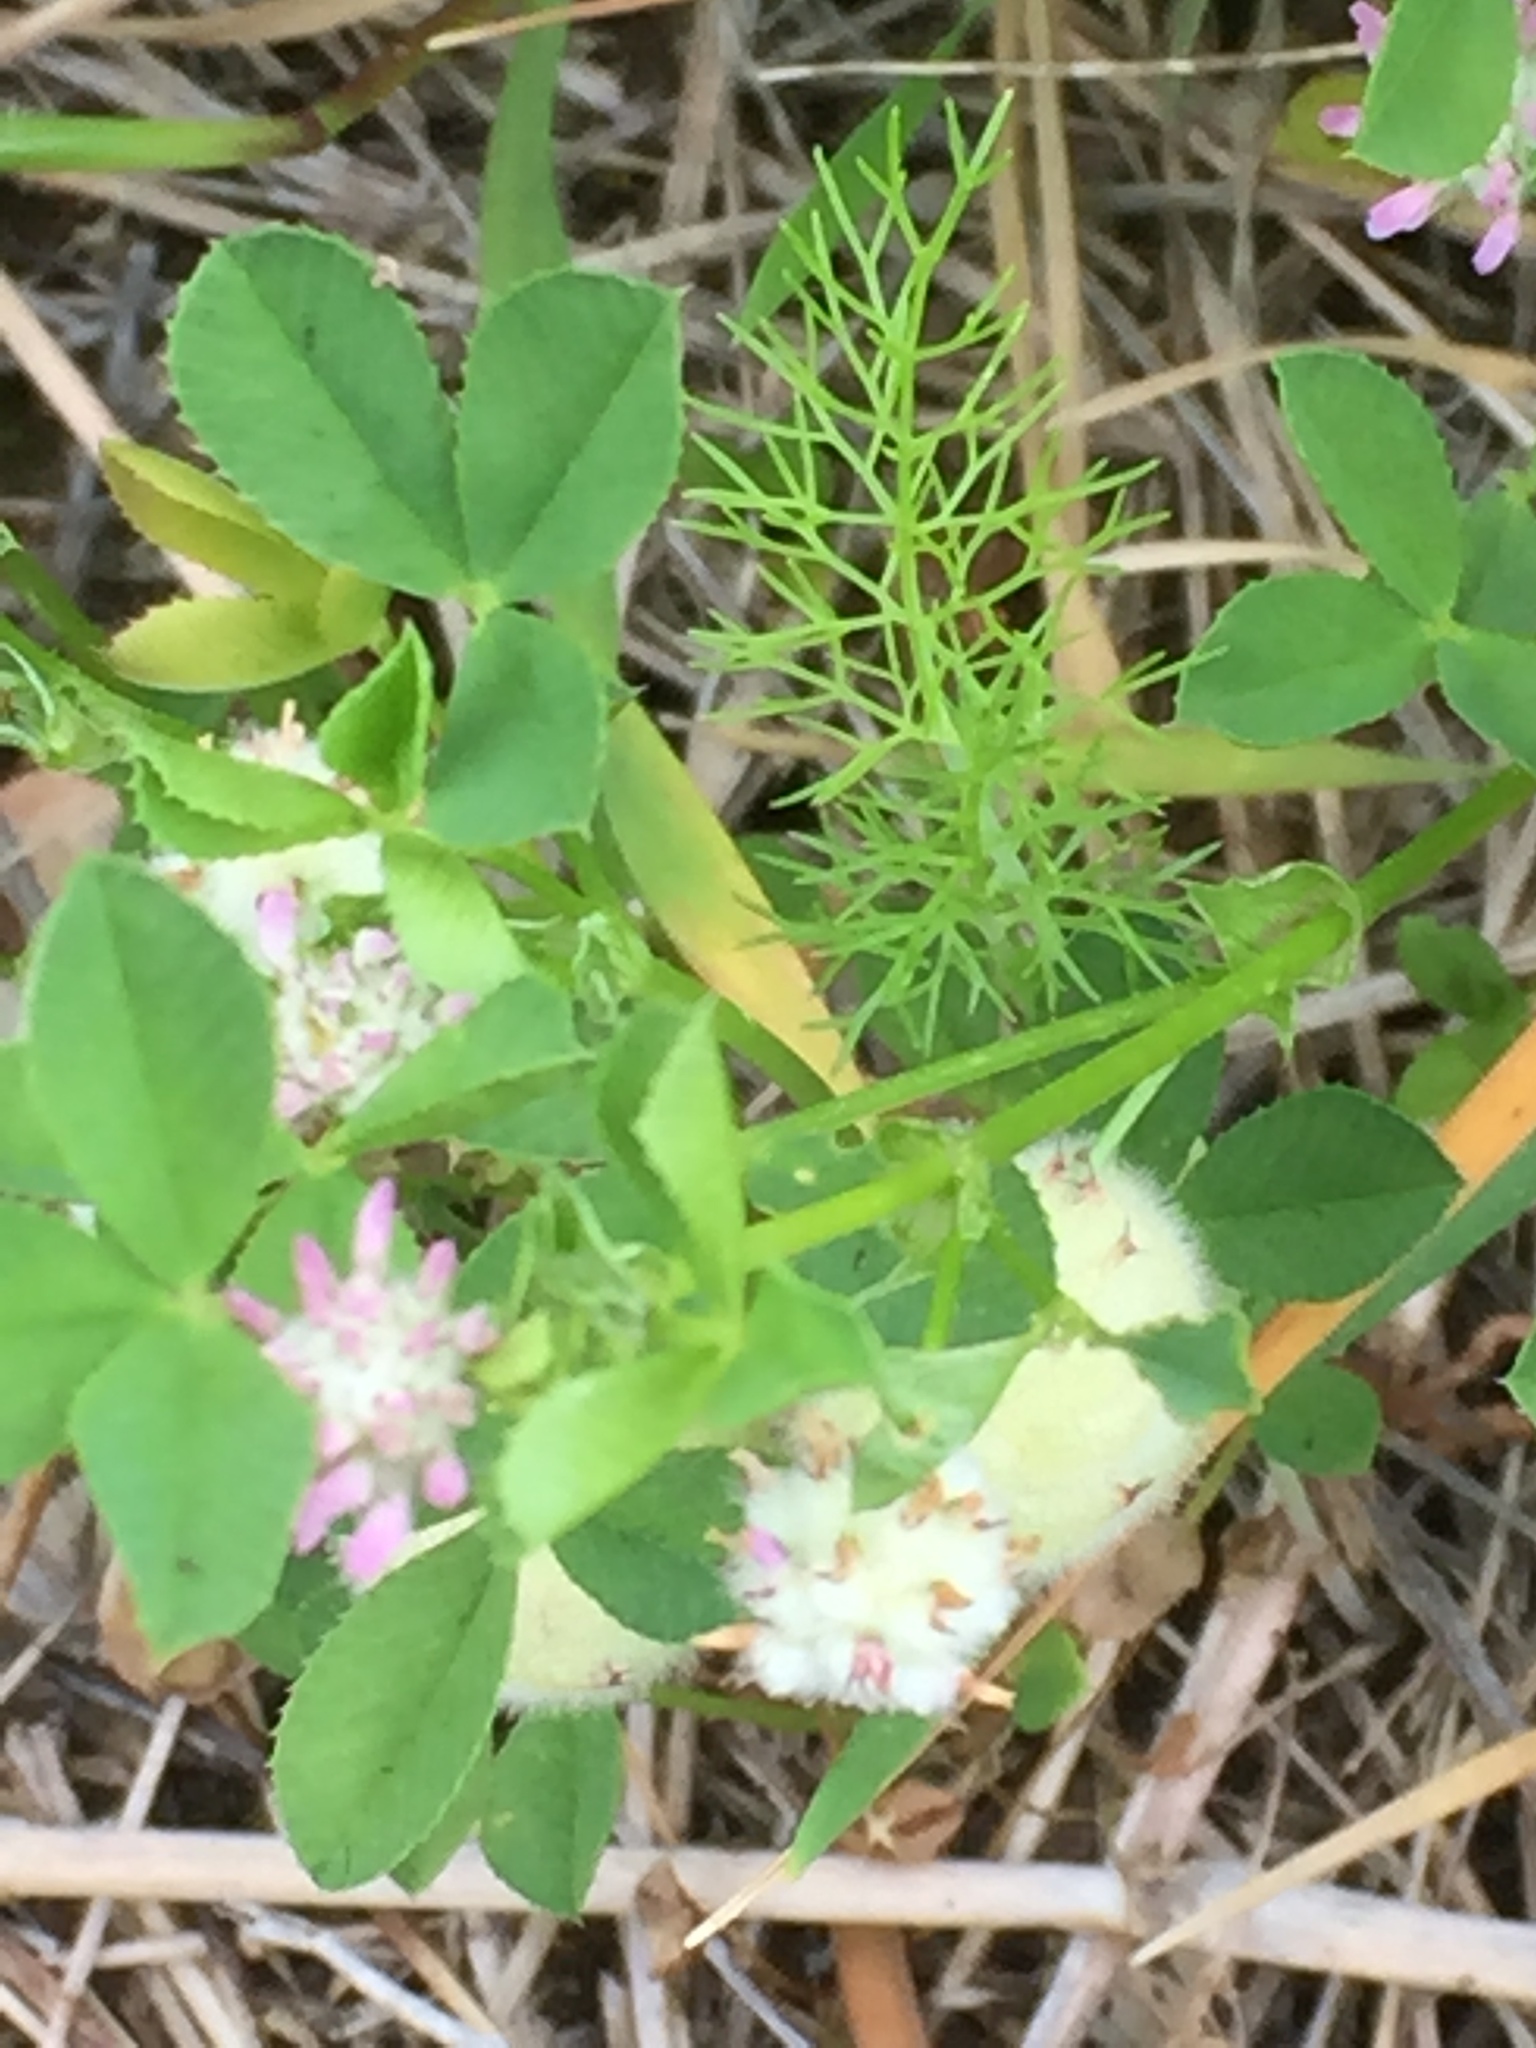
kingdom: Plantae
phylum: Tracheophyta
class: Magnoliopsida
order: Fabales
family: Fabaceae
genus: Trifolium
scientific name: Trifolium tomentosum
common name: Woolly clover
